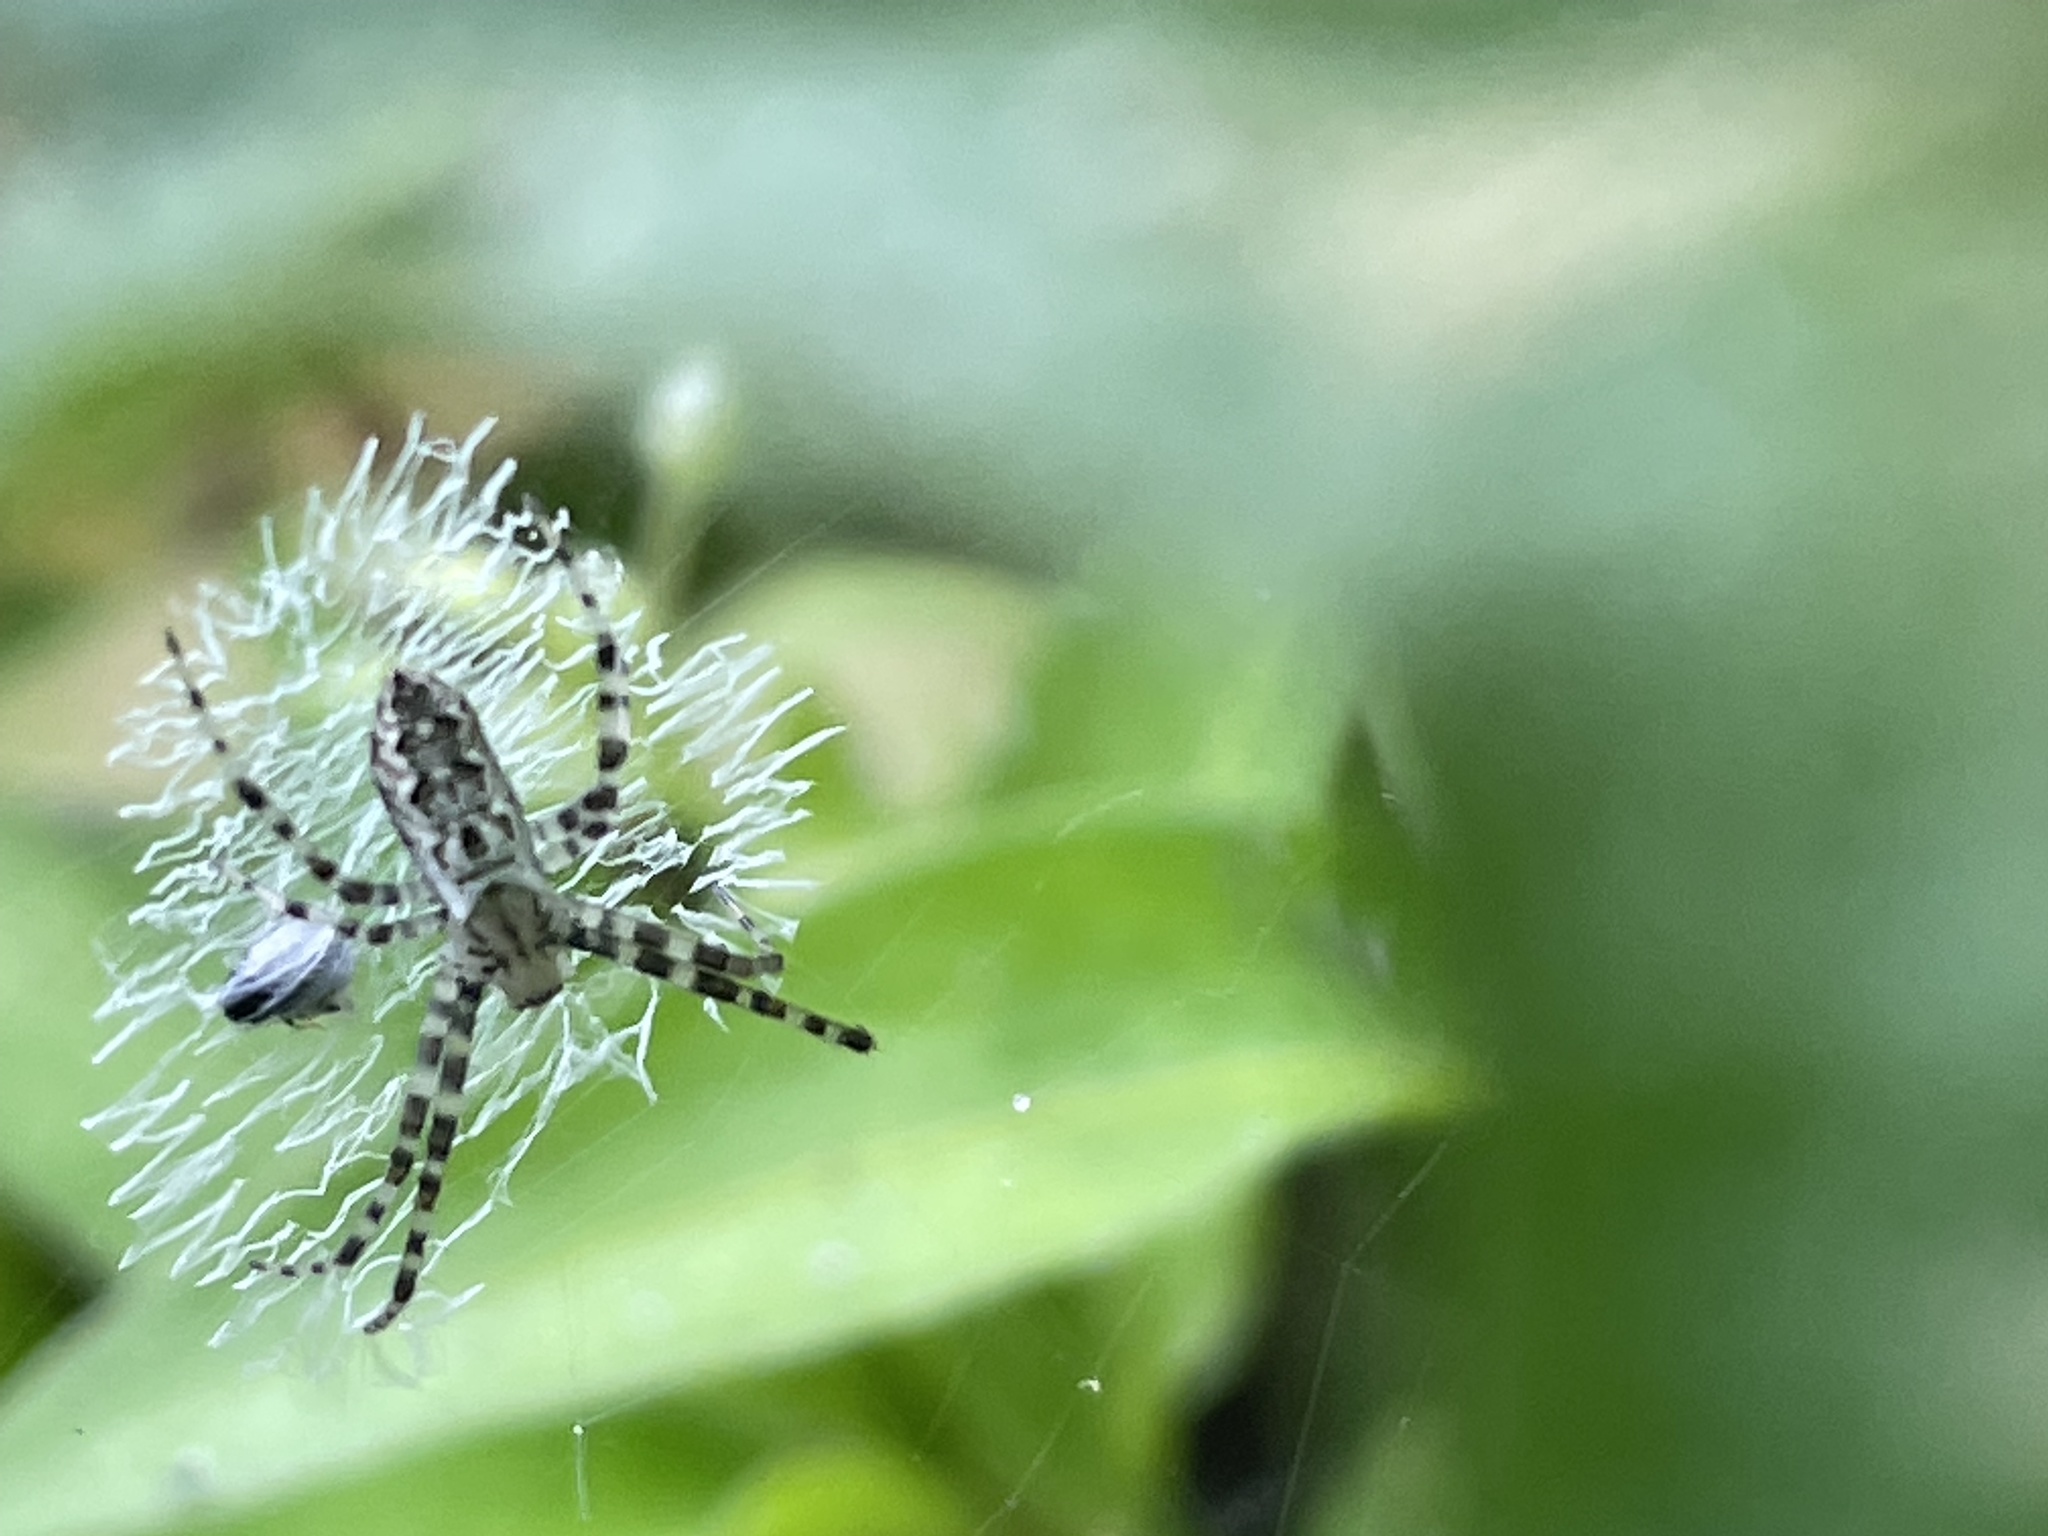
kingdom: Animalia
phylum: Arthropoda
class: Arachnida
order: Araneae
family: Araneidae
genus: Argiope
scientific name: Argiope aurantia
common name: Orb weavers
